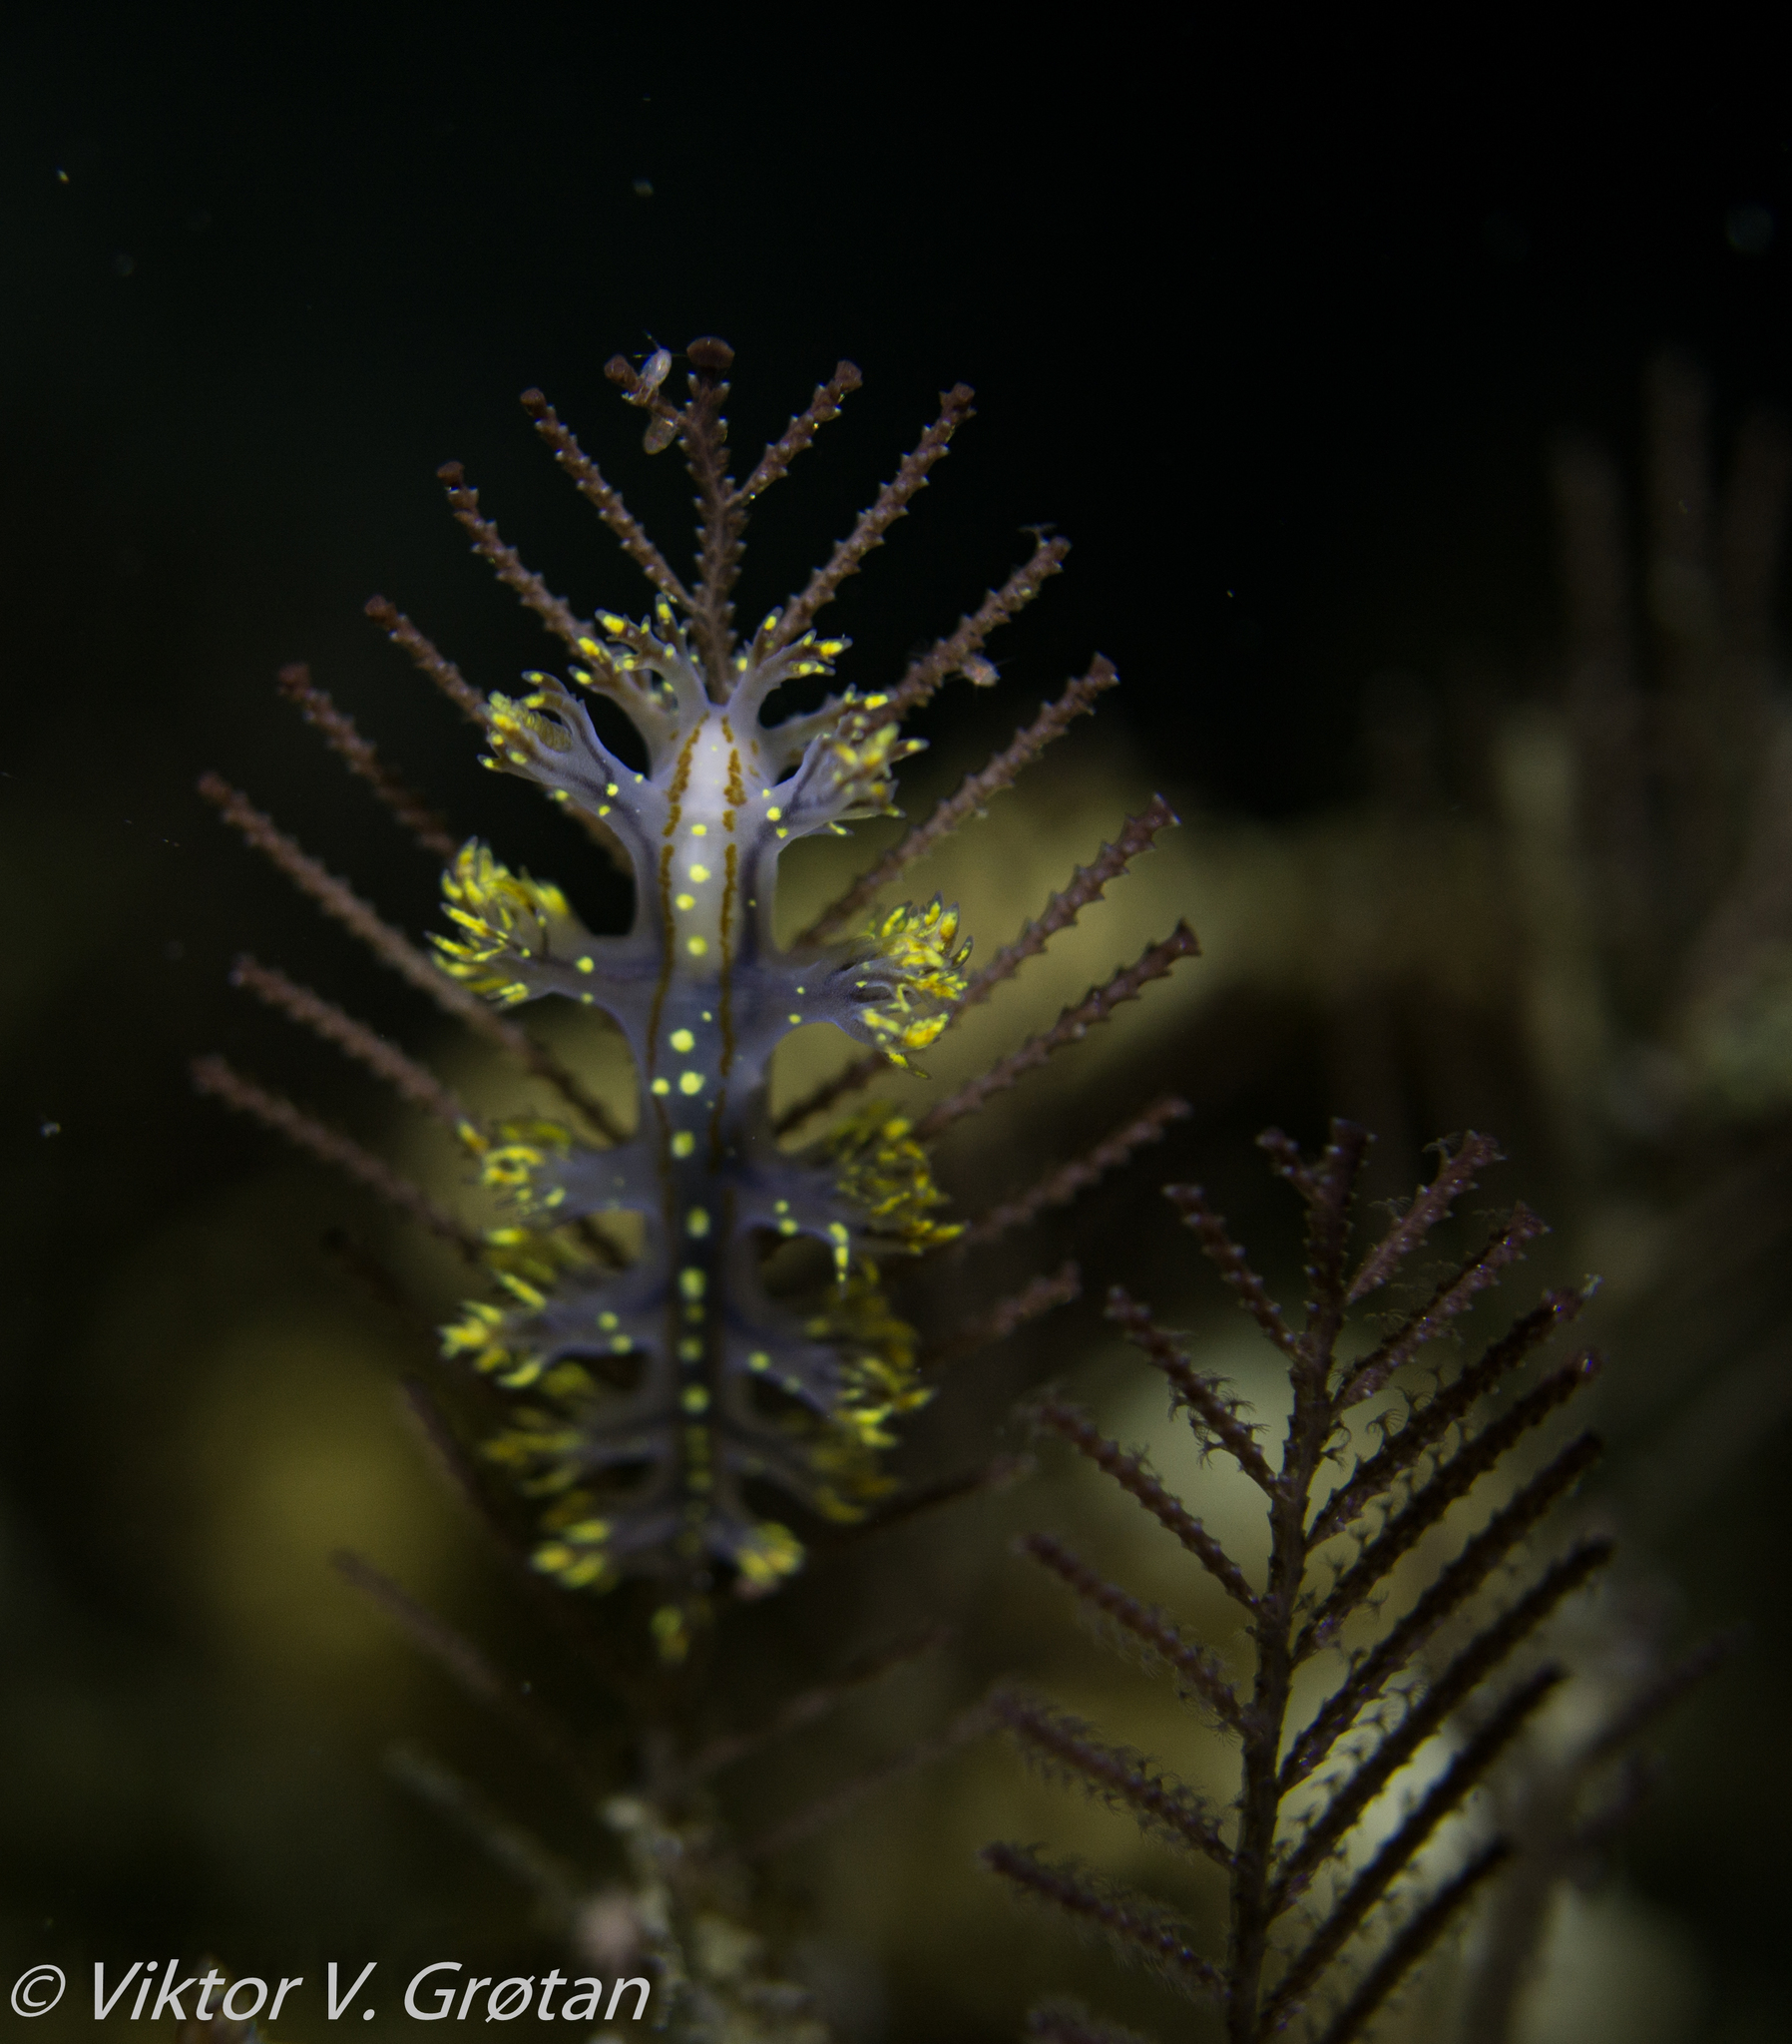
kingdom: Animalia
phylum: Mollusca
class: Gastropoda
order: Nudibranchia
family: Dendronotidae
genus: Dendronotus
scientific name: Dendronotus yrjargul
